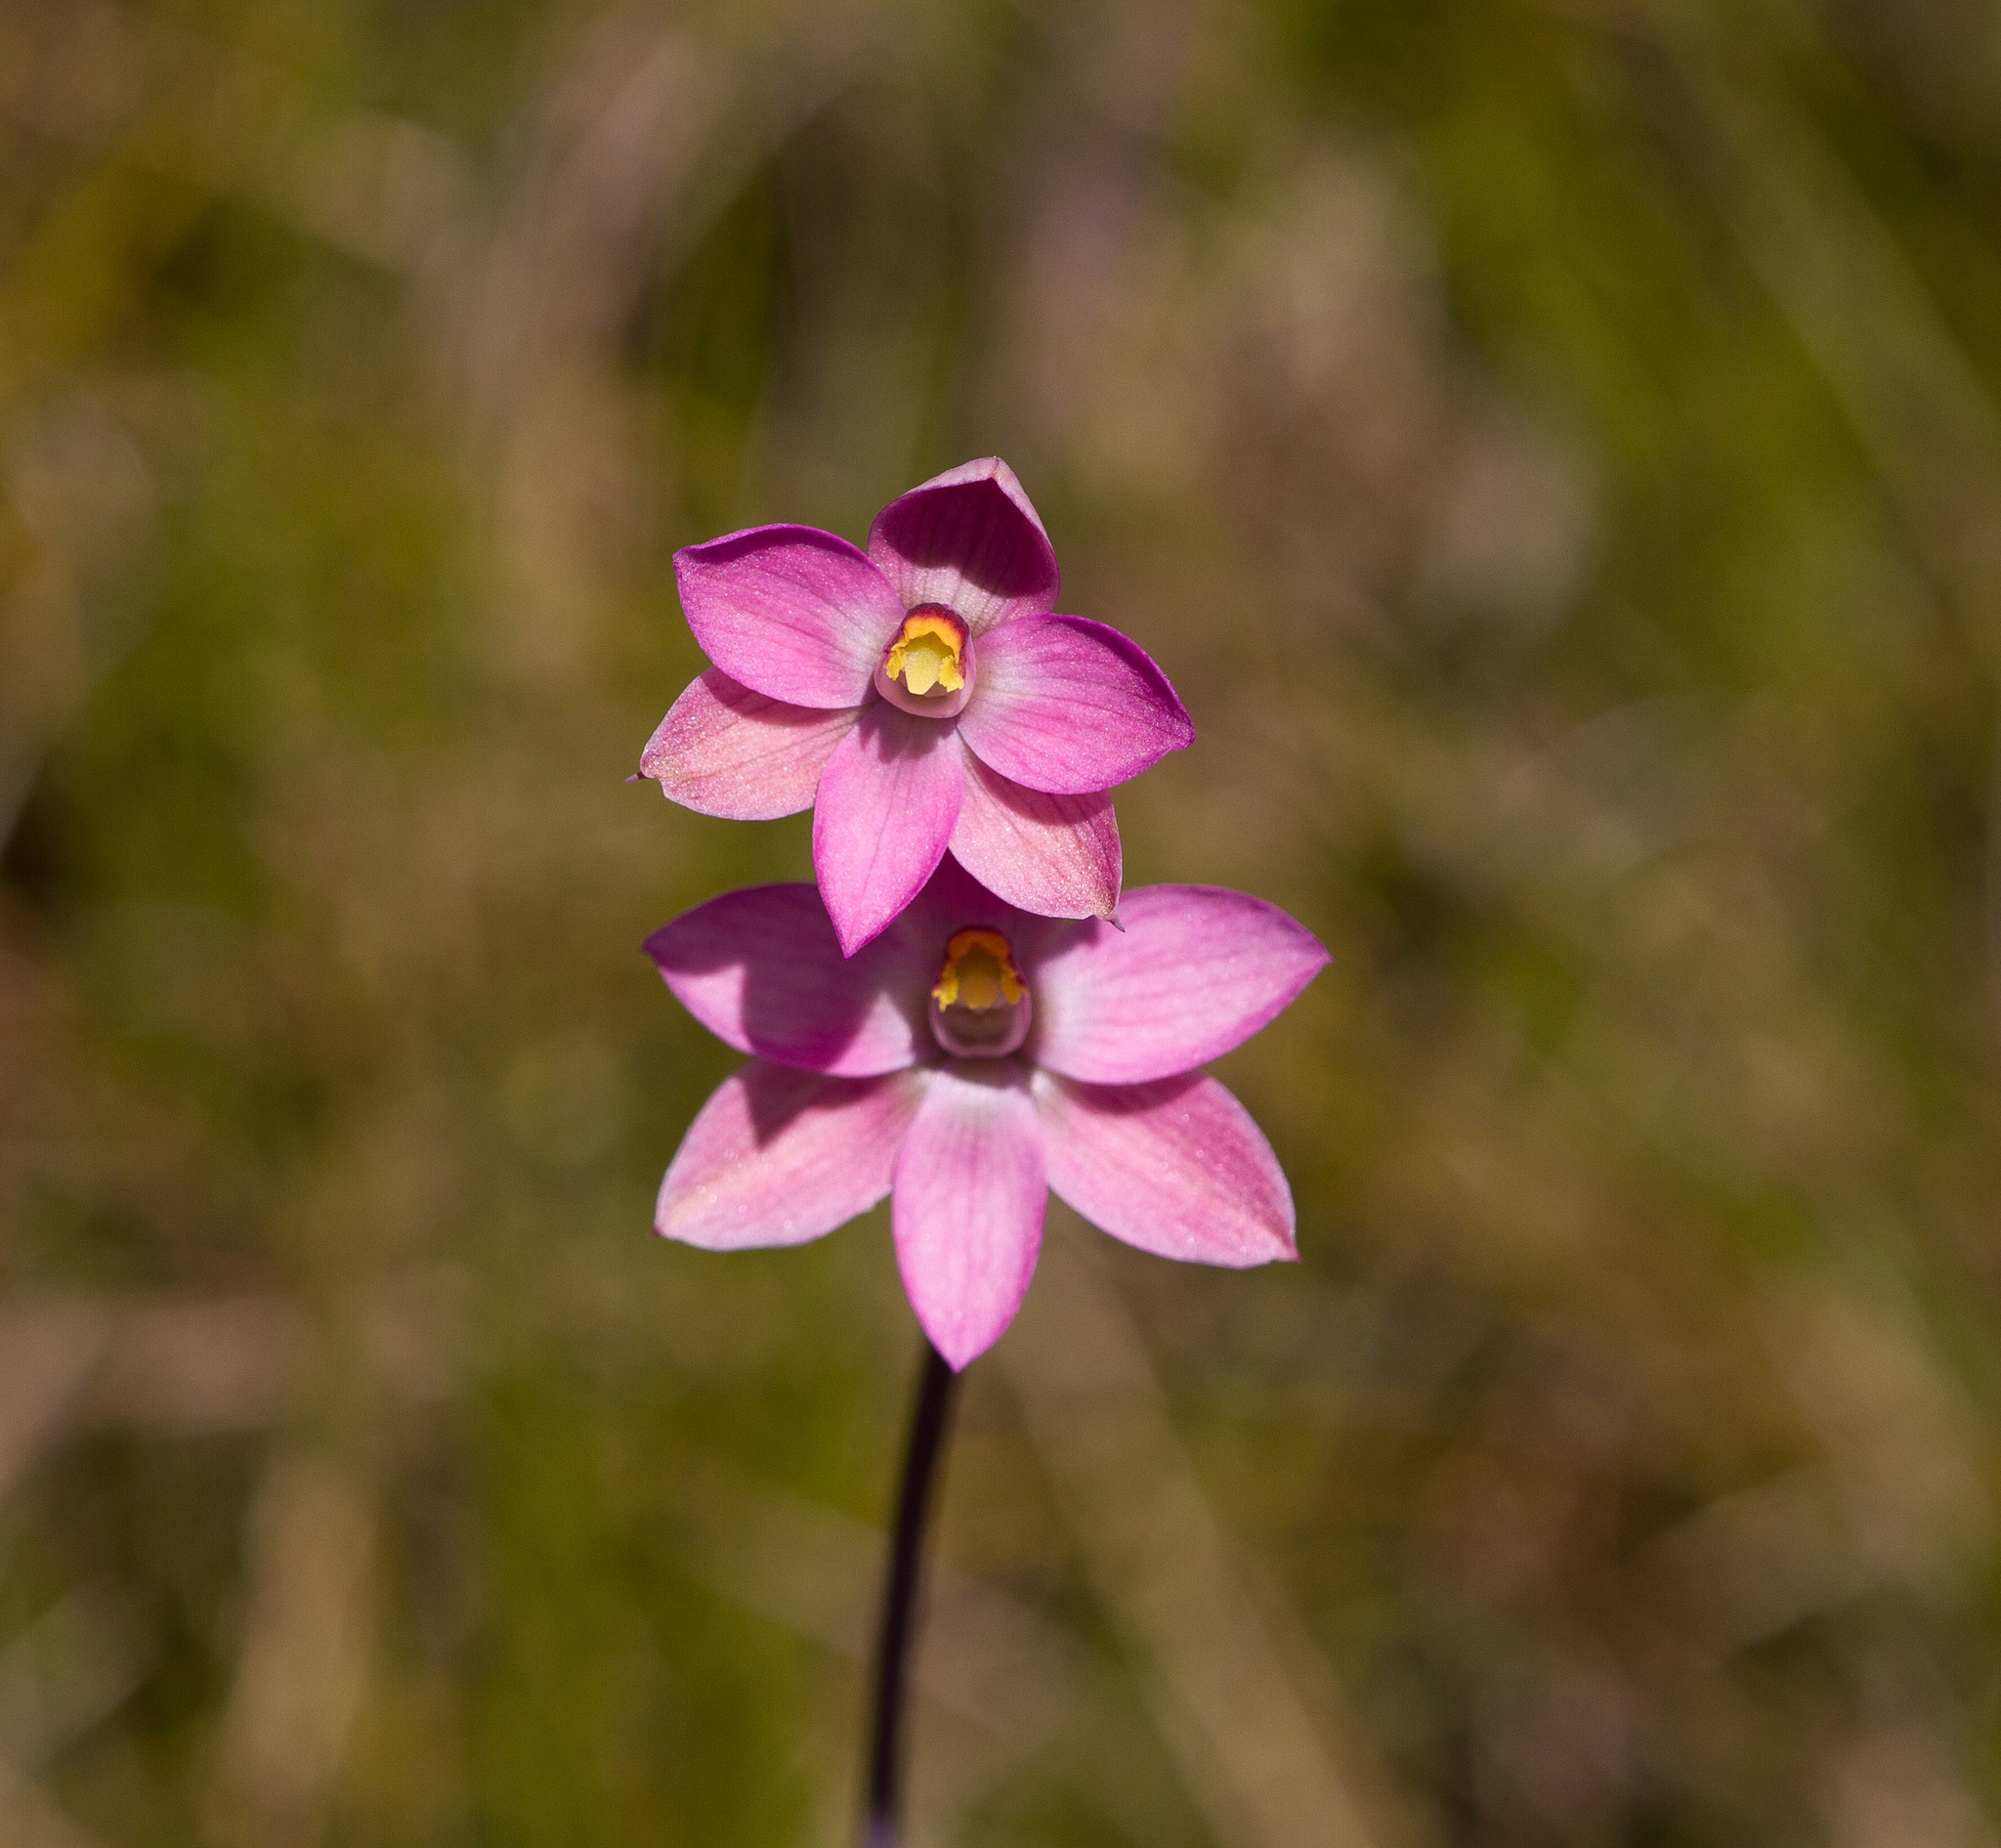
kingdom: Plantae
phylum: Tracheophyta
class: Liliopsida
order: Asparagales
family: Orchidaceae
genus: Thelymitra
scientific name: Thelymitra rubra
